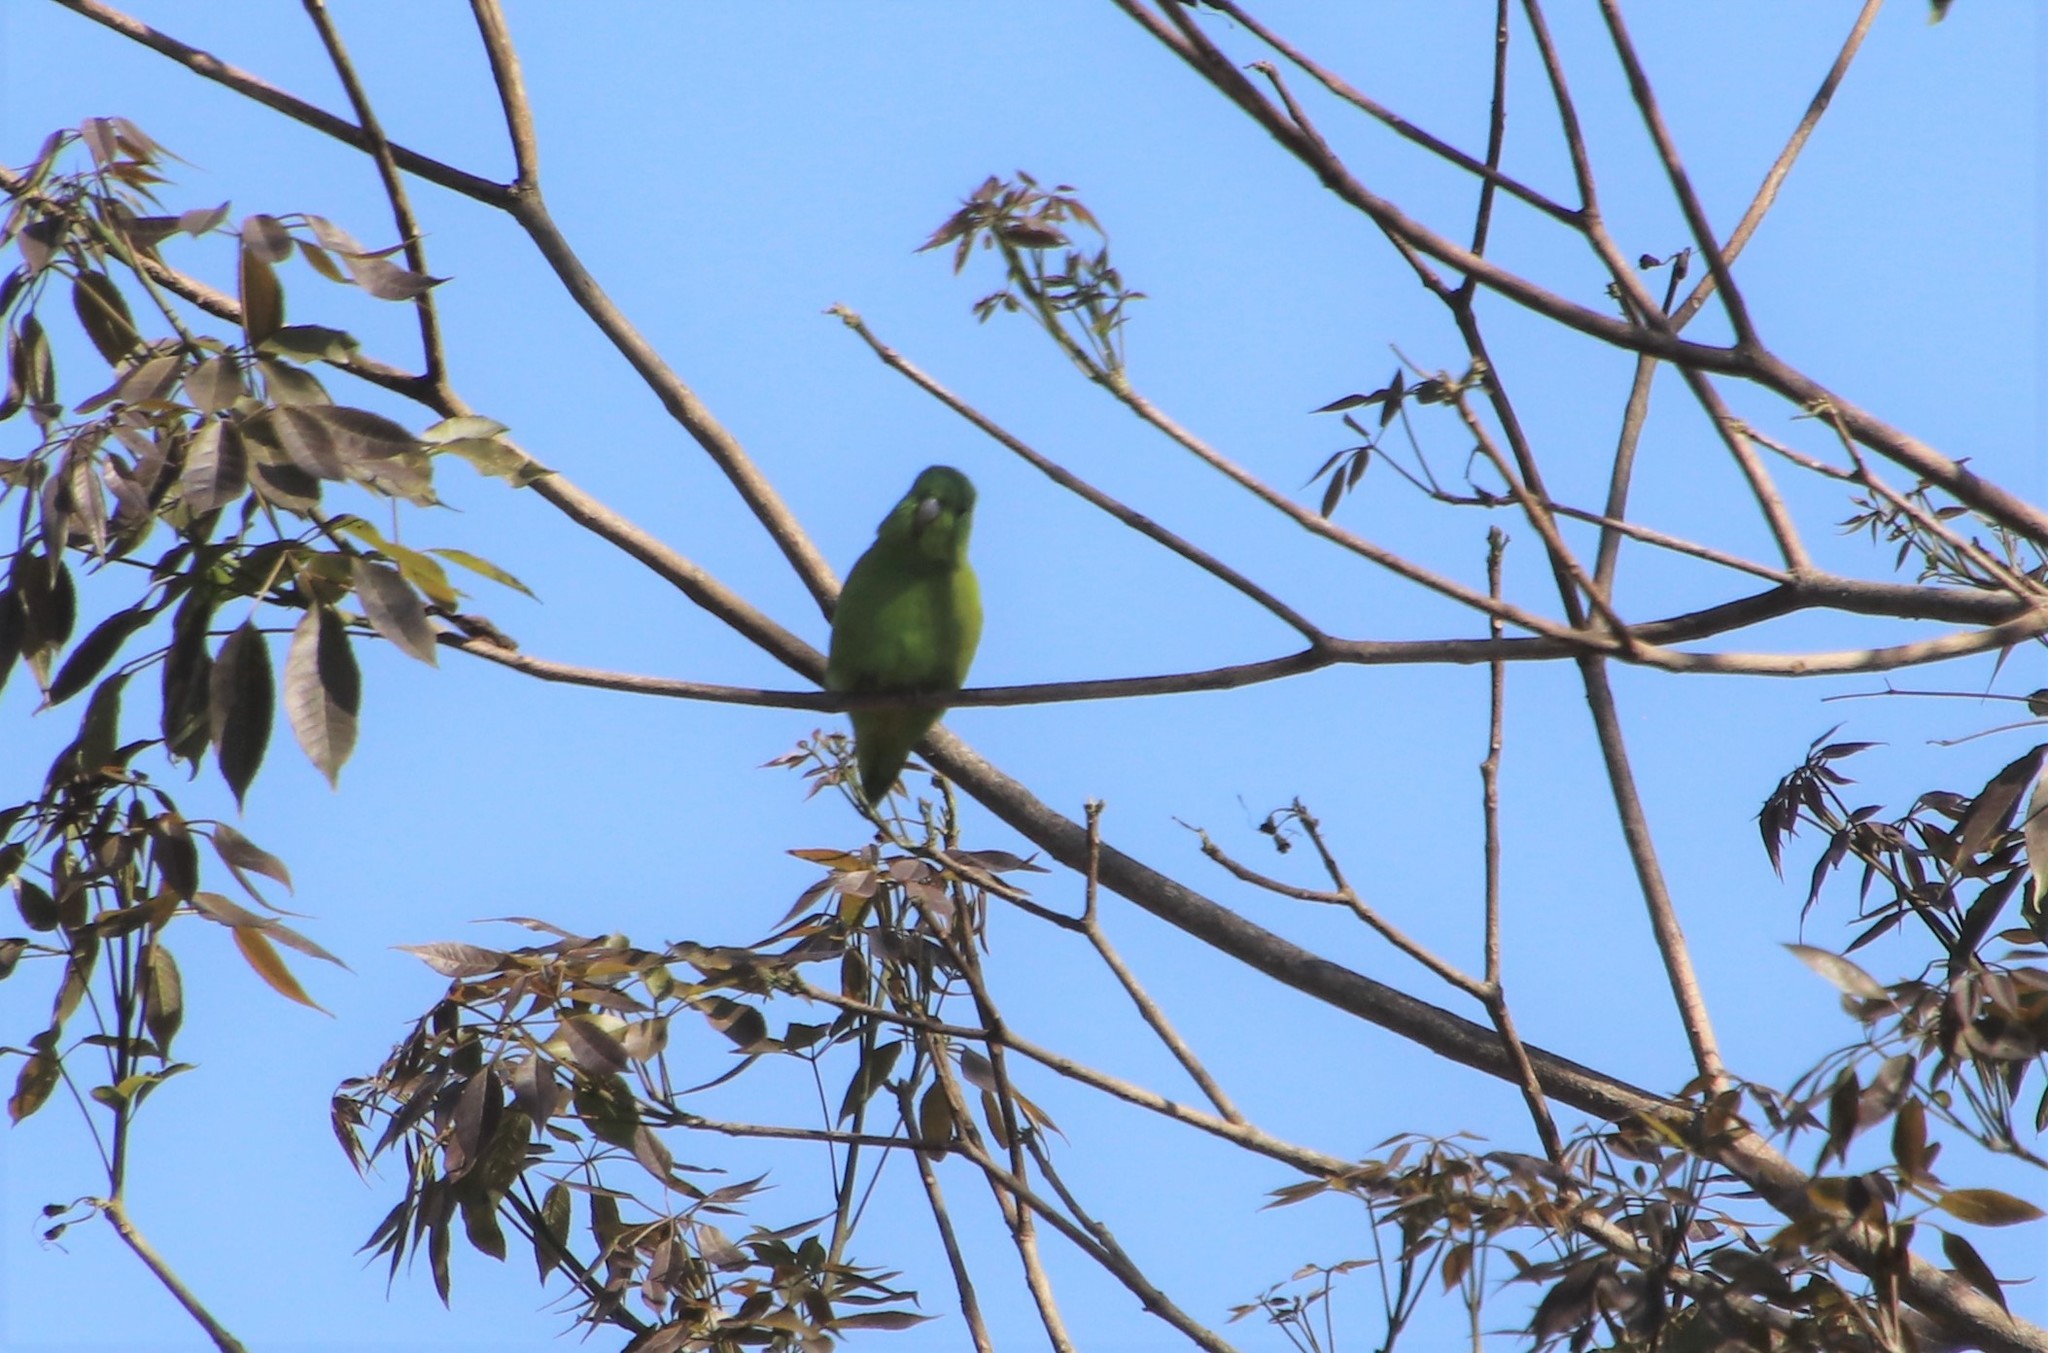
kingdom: Animalia
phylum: Chordata
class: Aves
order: Psittaciformes
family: Psittacidae
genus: Forpus
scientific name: Forpus xanthopterygius
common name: Blue-winged parrotlet
